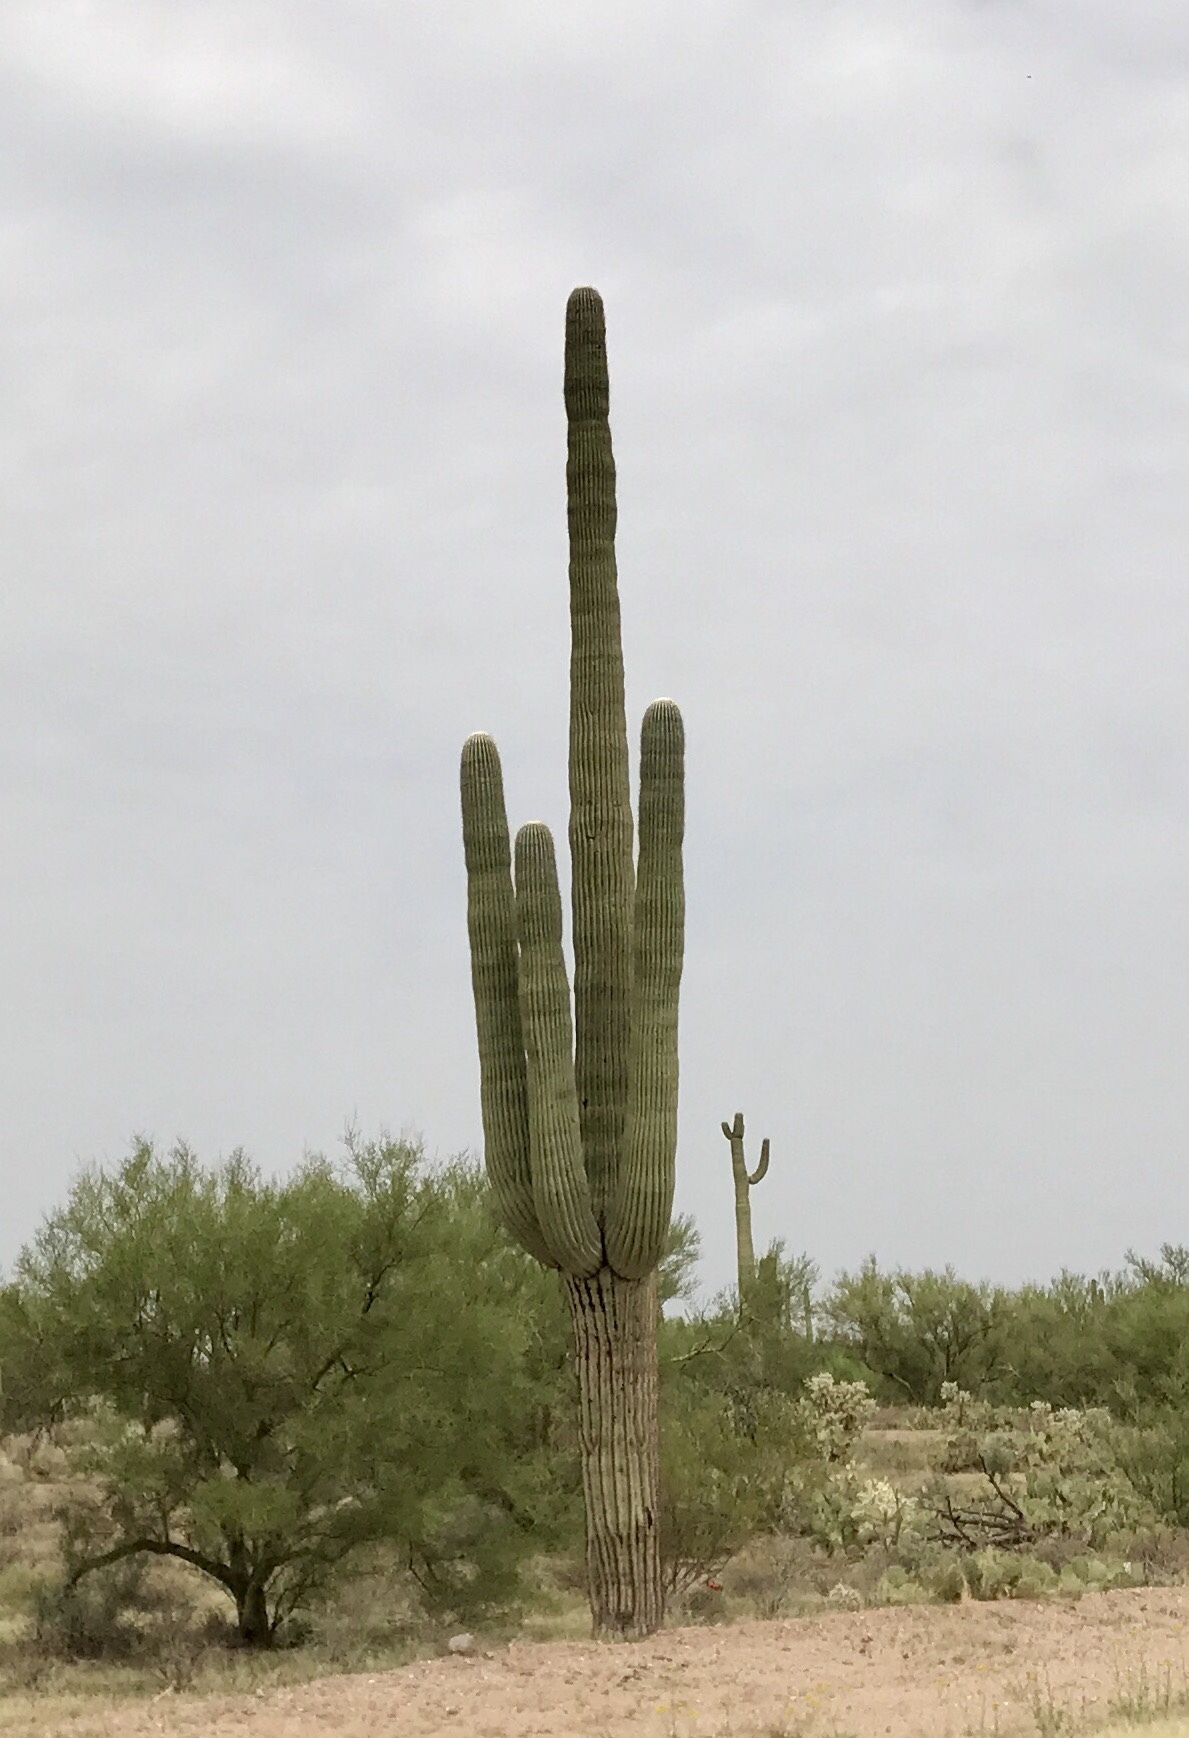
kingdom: Plantae
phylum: Tracheophyta
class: Magnoliopsida
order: Caryophyllales
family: Cactaceae
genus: Carnegiea
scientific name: Carnegiea gigantea
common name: Saguaro
